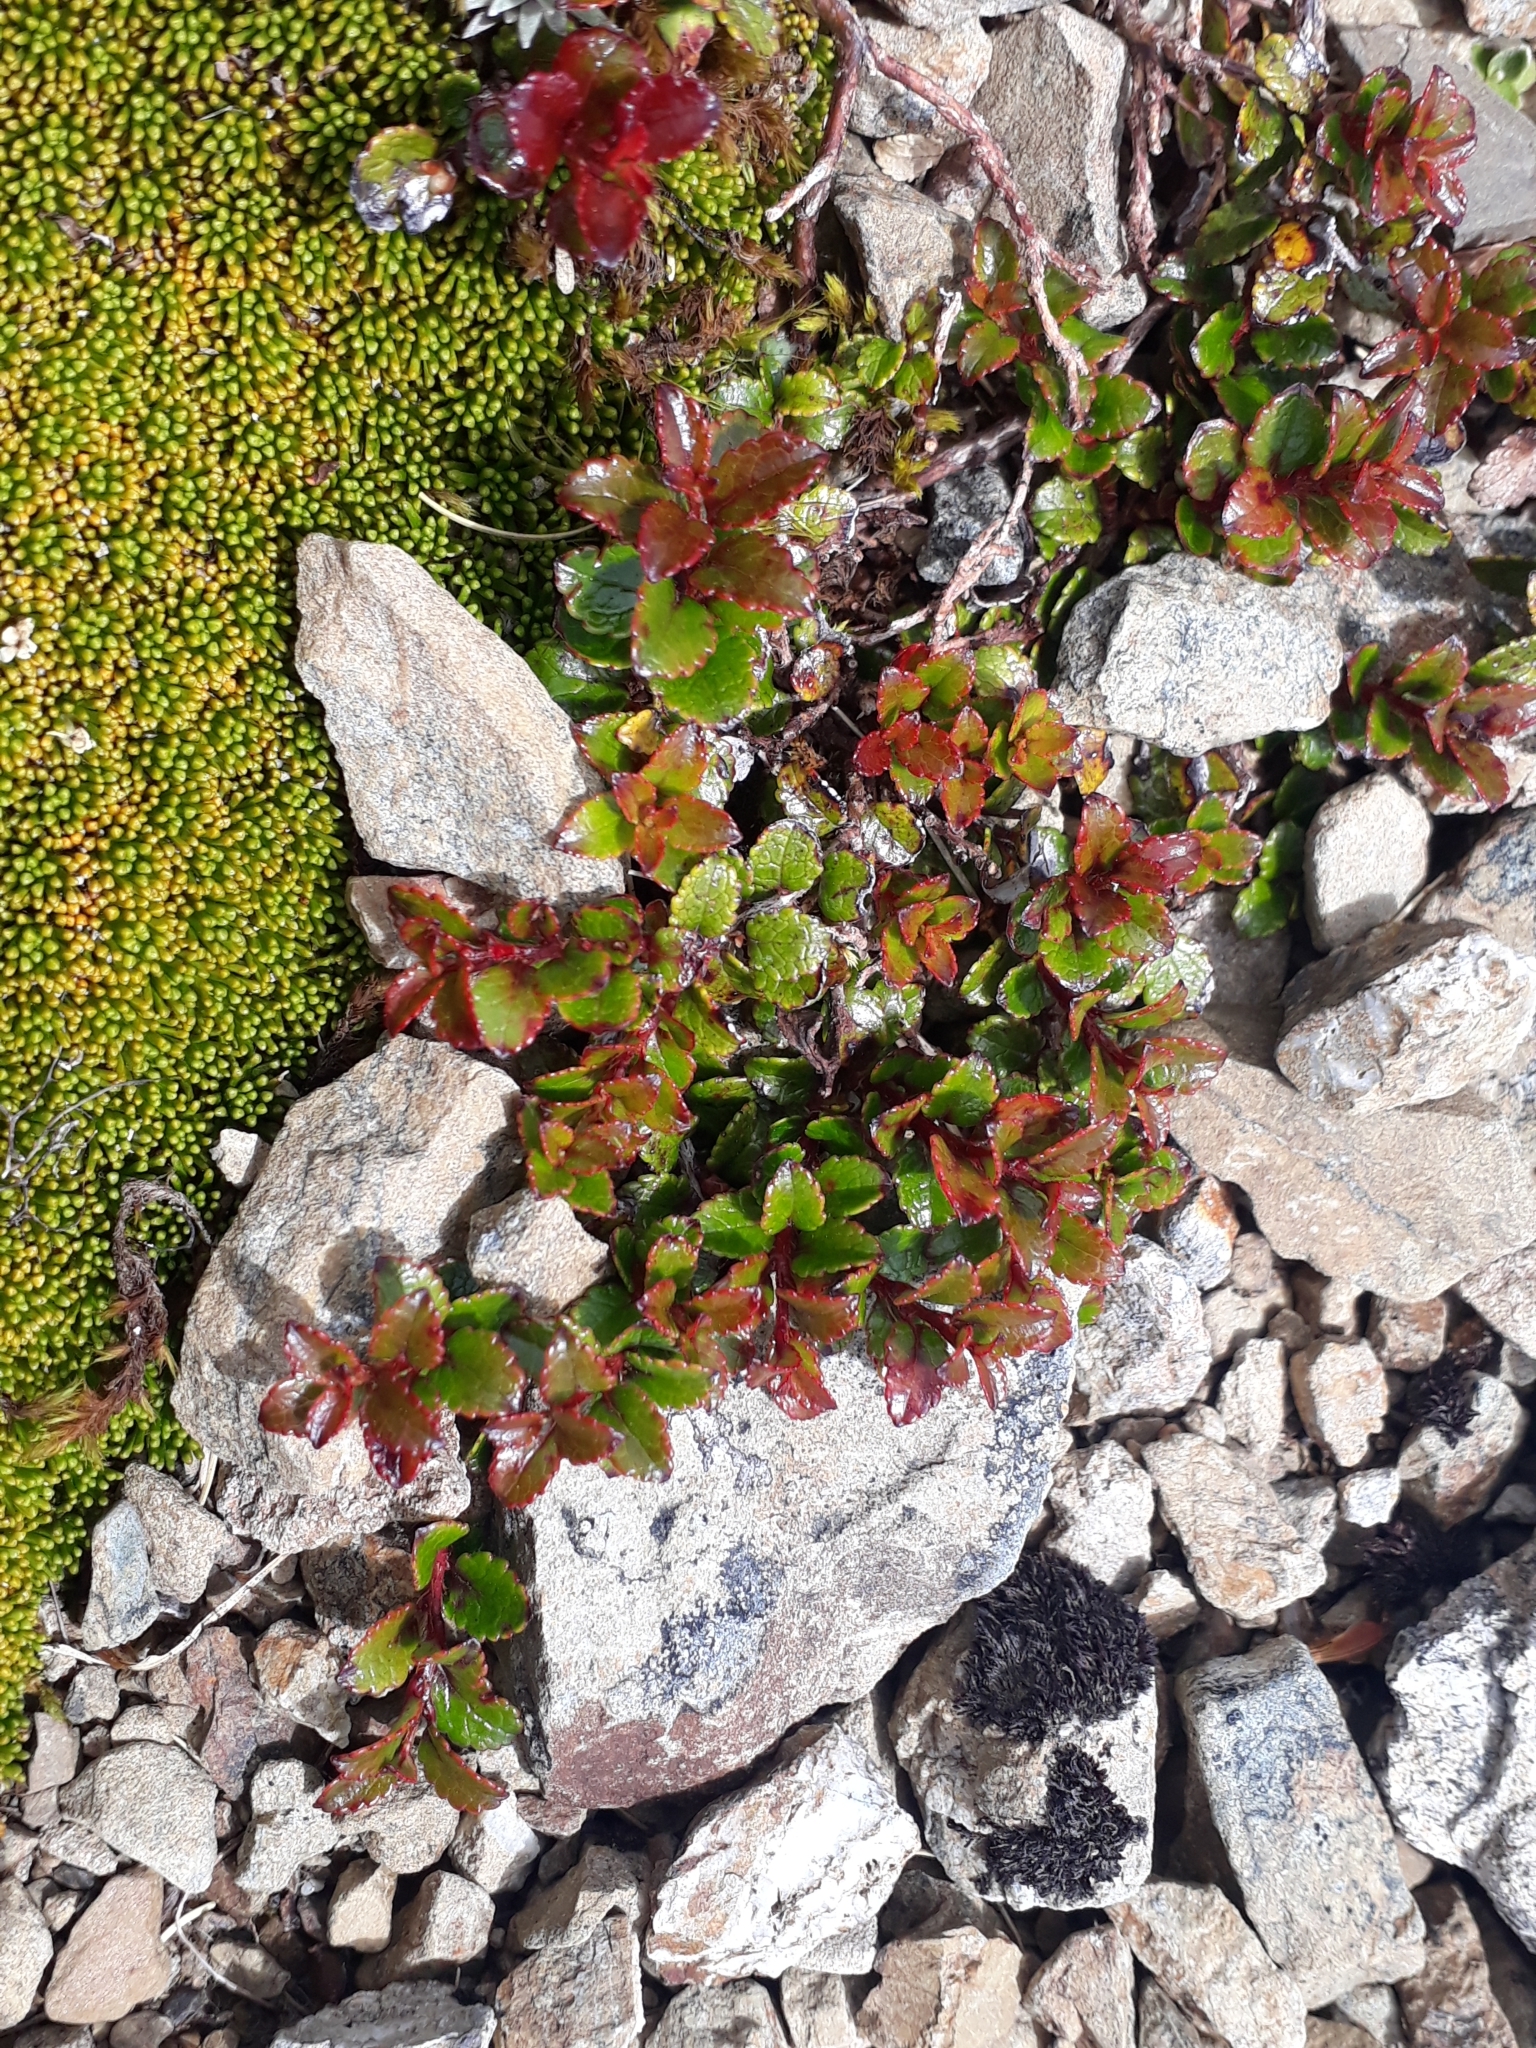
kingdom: Plantae
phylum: Tracheophyta
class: Magnoliopsida
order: Ericales
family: Ericaceae
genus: Gaultheria
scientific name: Gaultheria depressa
